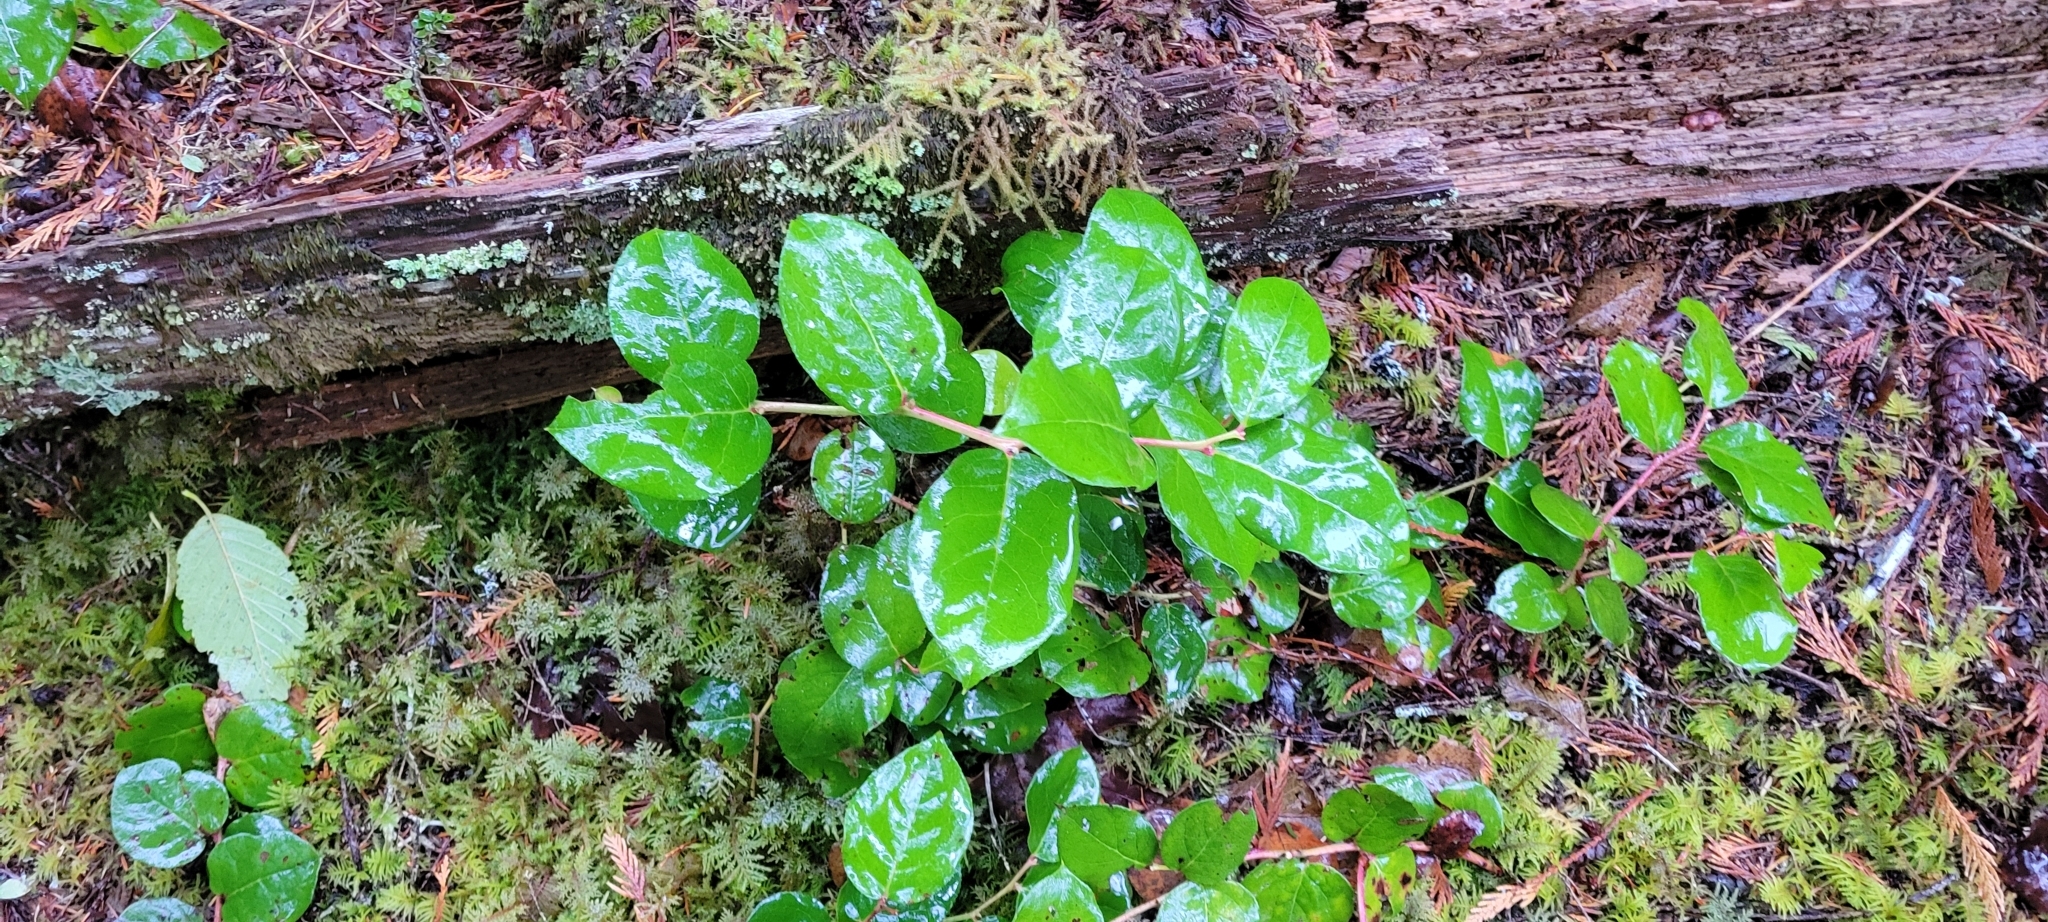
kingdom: Plantae
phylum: Tracheophyta
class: Magnoliopsida
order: Ericales
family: Ericaceae
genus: Gaultheria
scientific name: Gaultheria shallon
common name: Shallon
